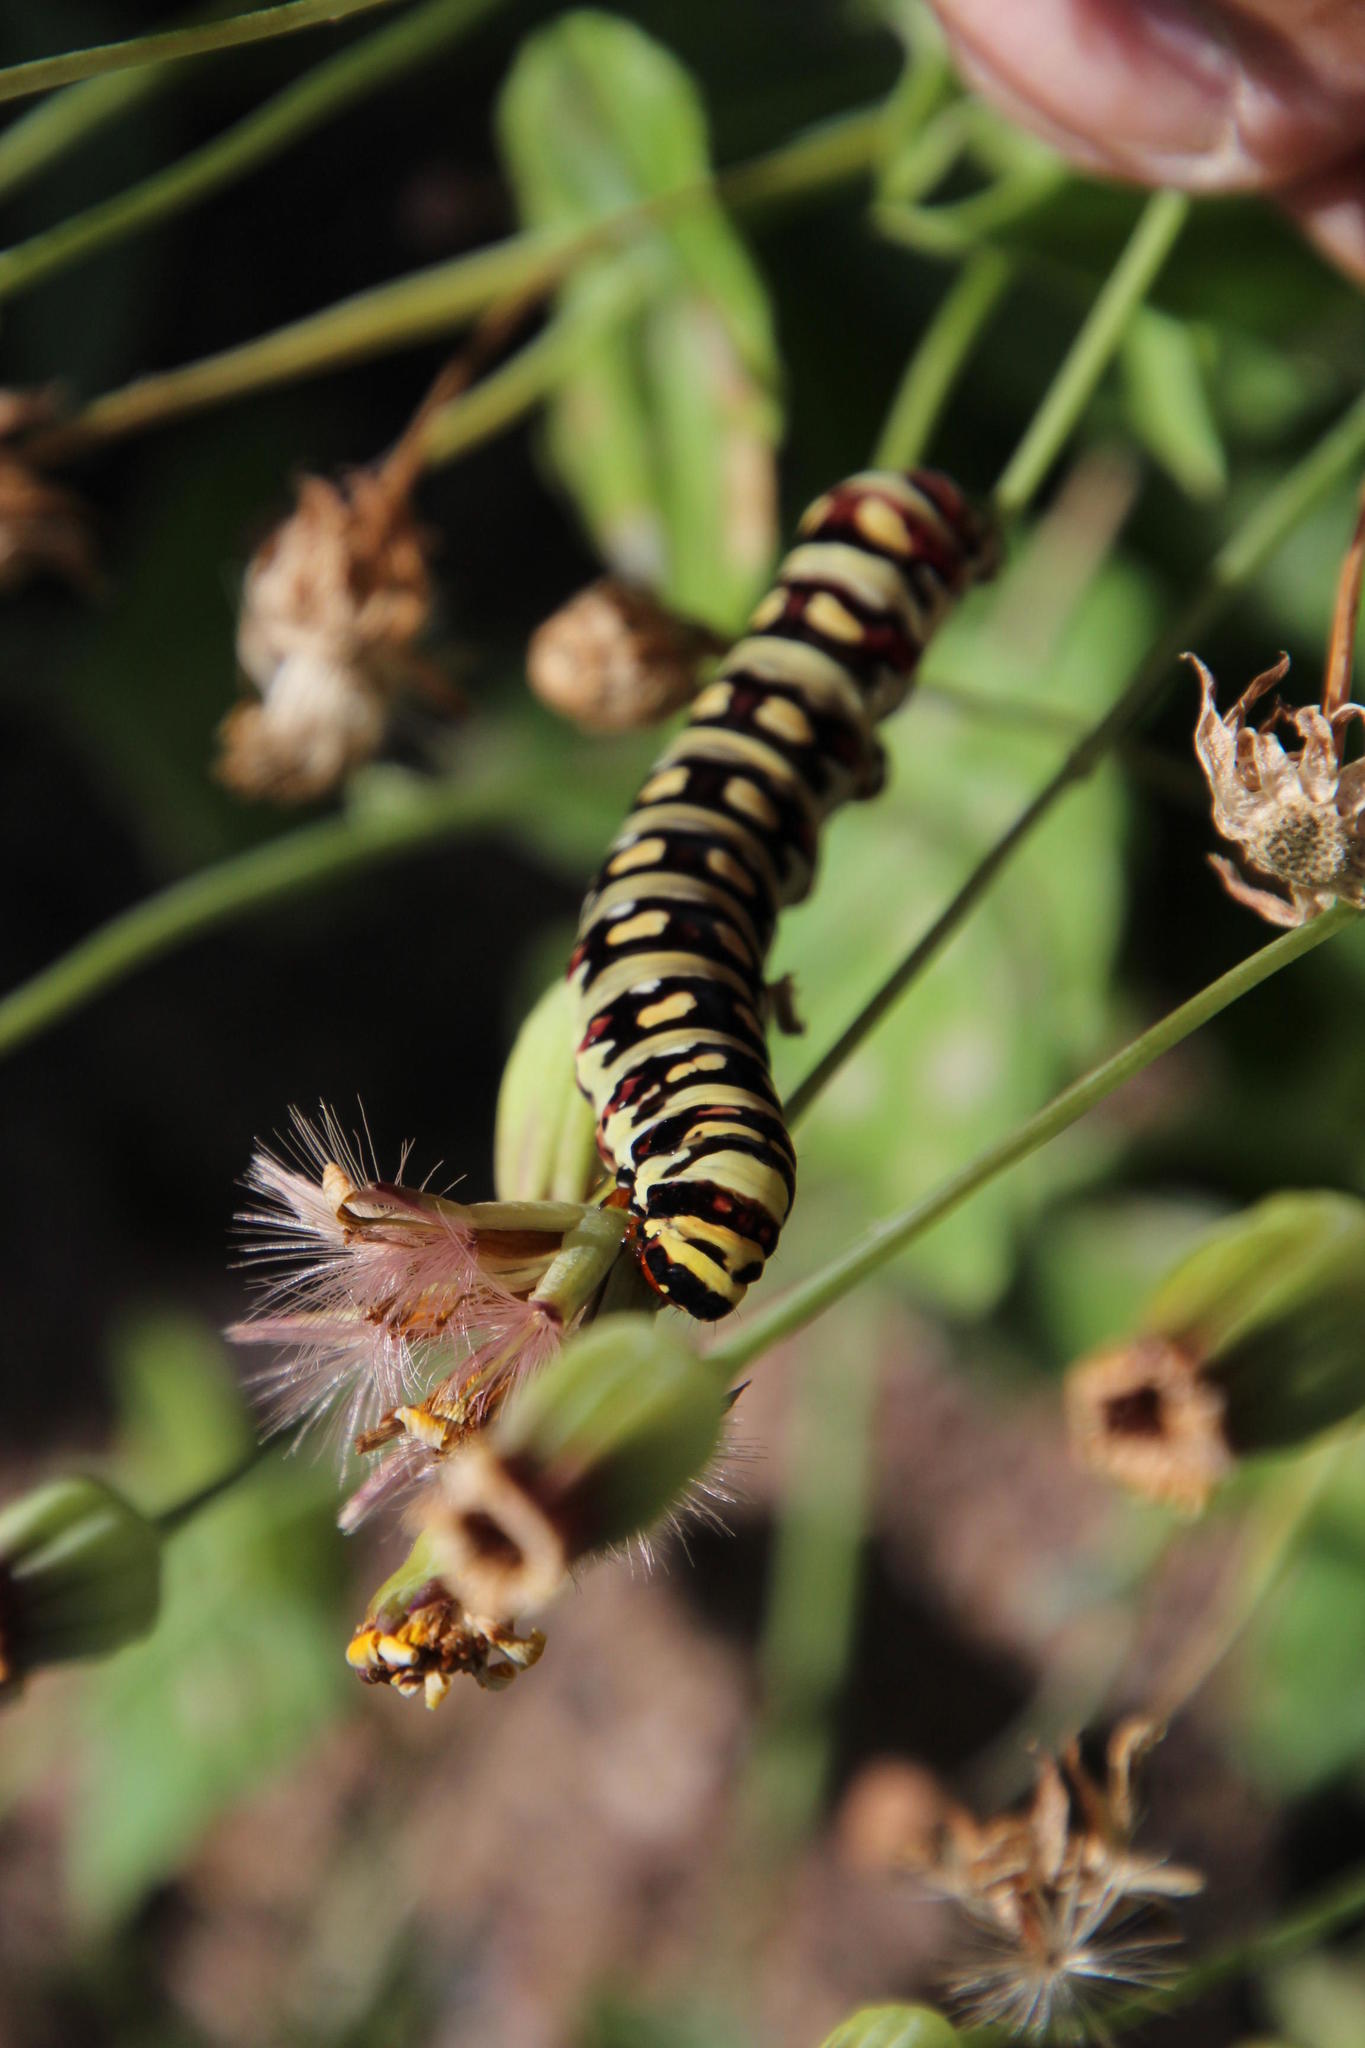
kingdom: Animalia
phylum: Arthropoda
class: Insecta
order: Lepidoptera
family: Noctuidae
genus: Klugeana
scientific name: Klugeana philoxalis
